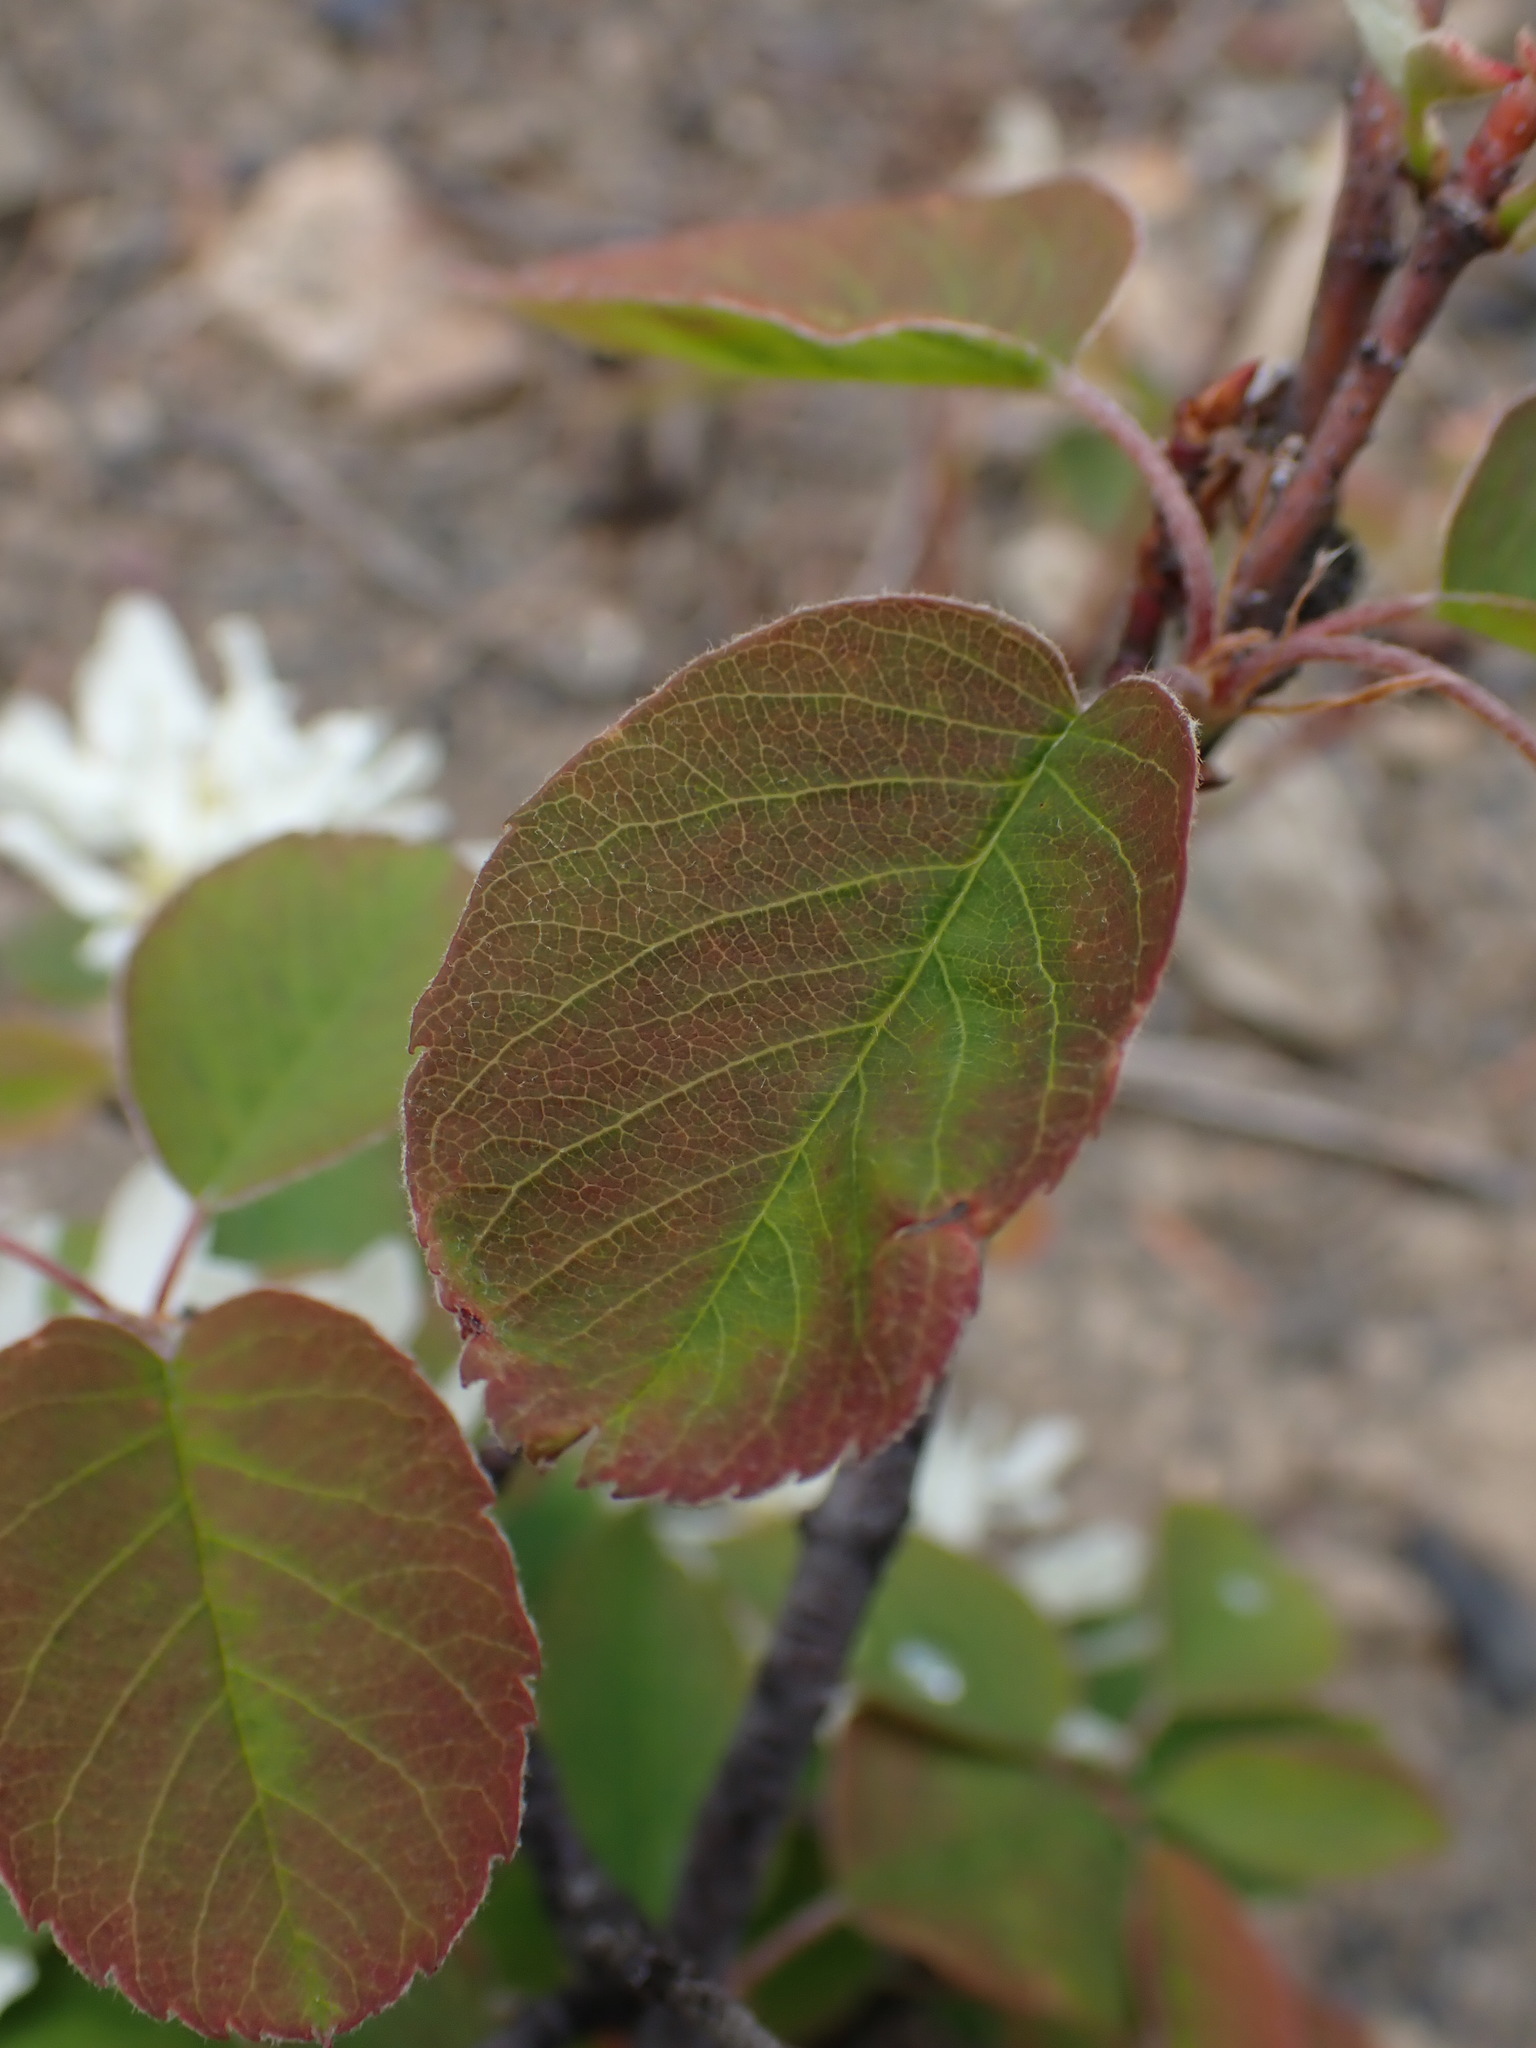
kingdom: Plantae
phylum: Tracheophyta
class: Magnoliopsida
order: Rosales
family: Rosaceae
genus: Amelanchier
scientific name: Amelanchier alnifolia
